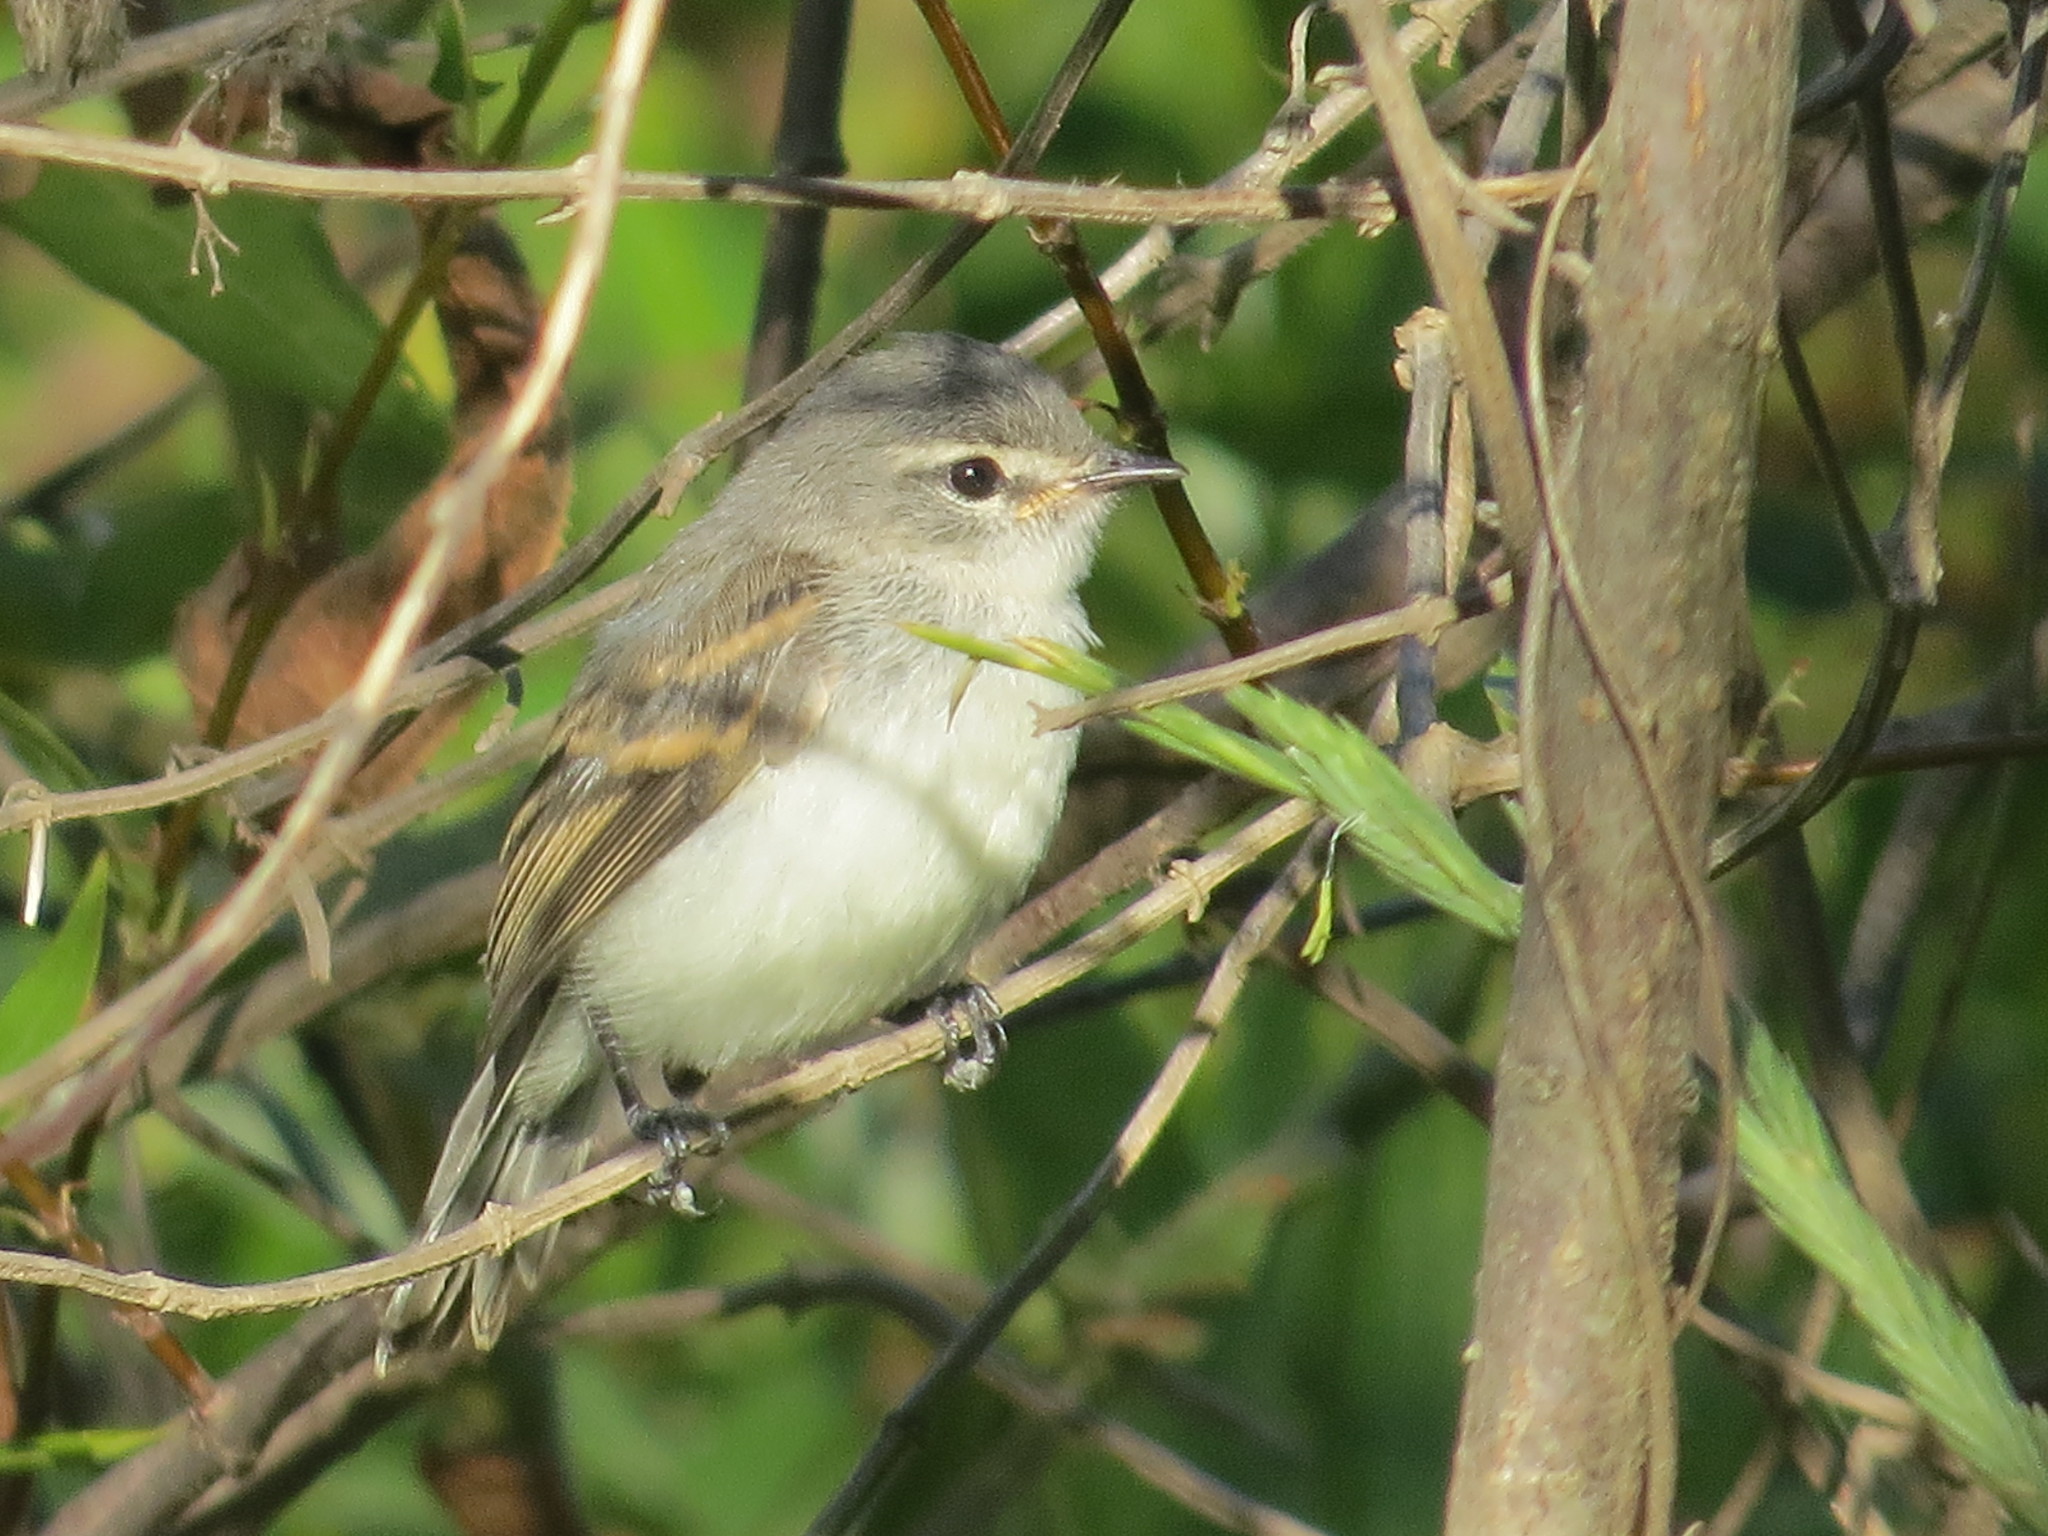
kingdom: Animalia
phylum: Chordata
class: Aves
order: Passeriformes
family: Tyrannidae
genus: Camptostoma
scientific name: Camptostoma obsoletum
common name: Southern beardless-tyrannulet
